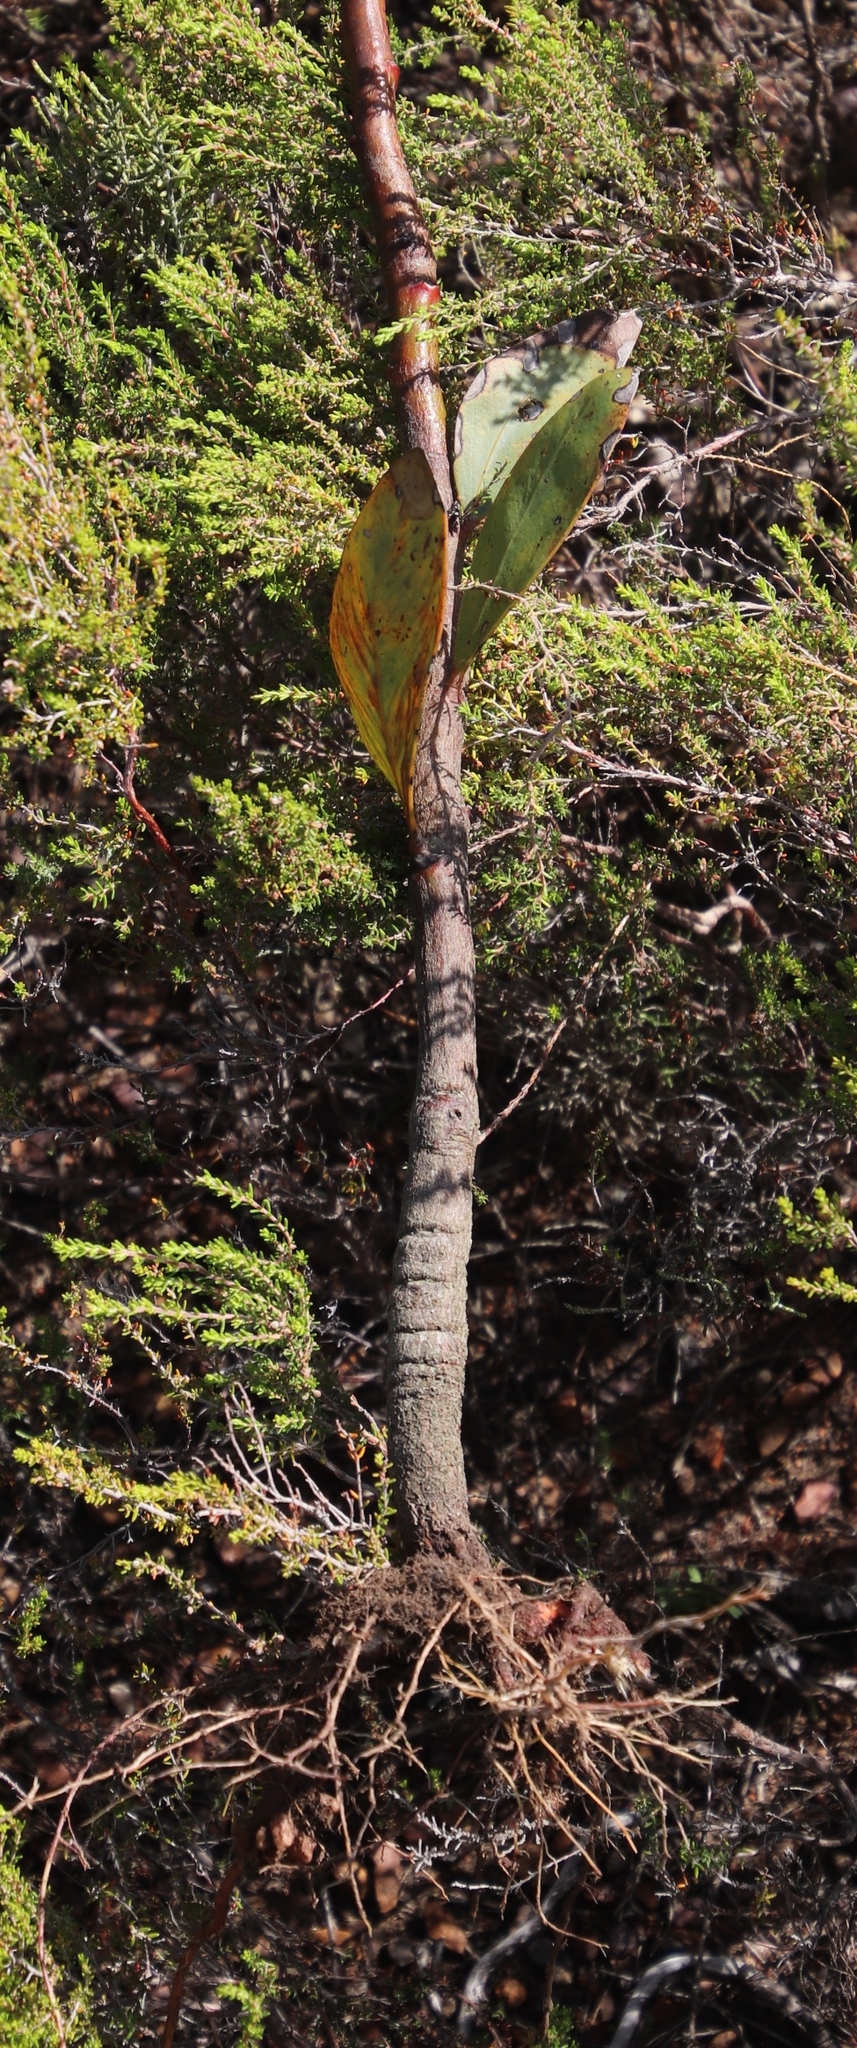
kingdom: Plantae
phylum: Tracheophyta
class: Magnoliopsida
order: Fabales
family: Fabaceae
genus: Acacia
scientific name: Acacia pycnantha
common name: Golden wattle
